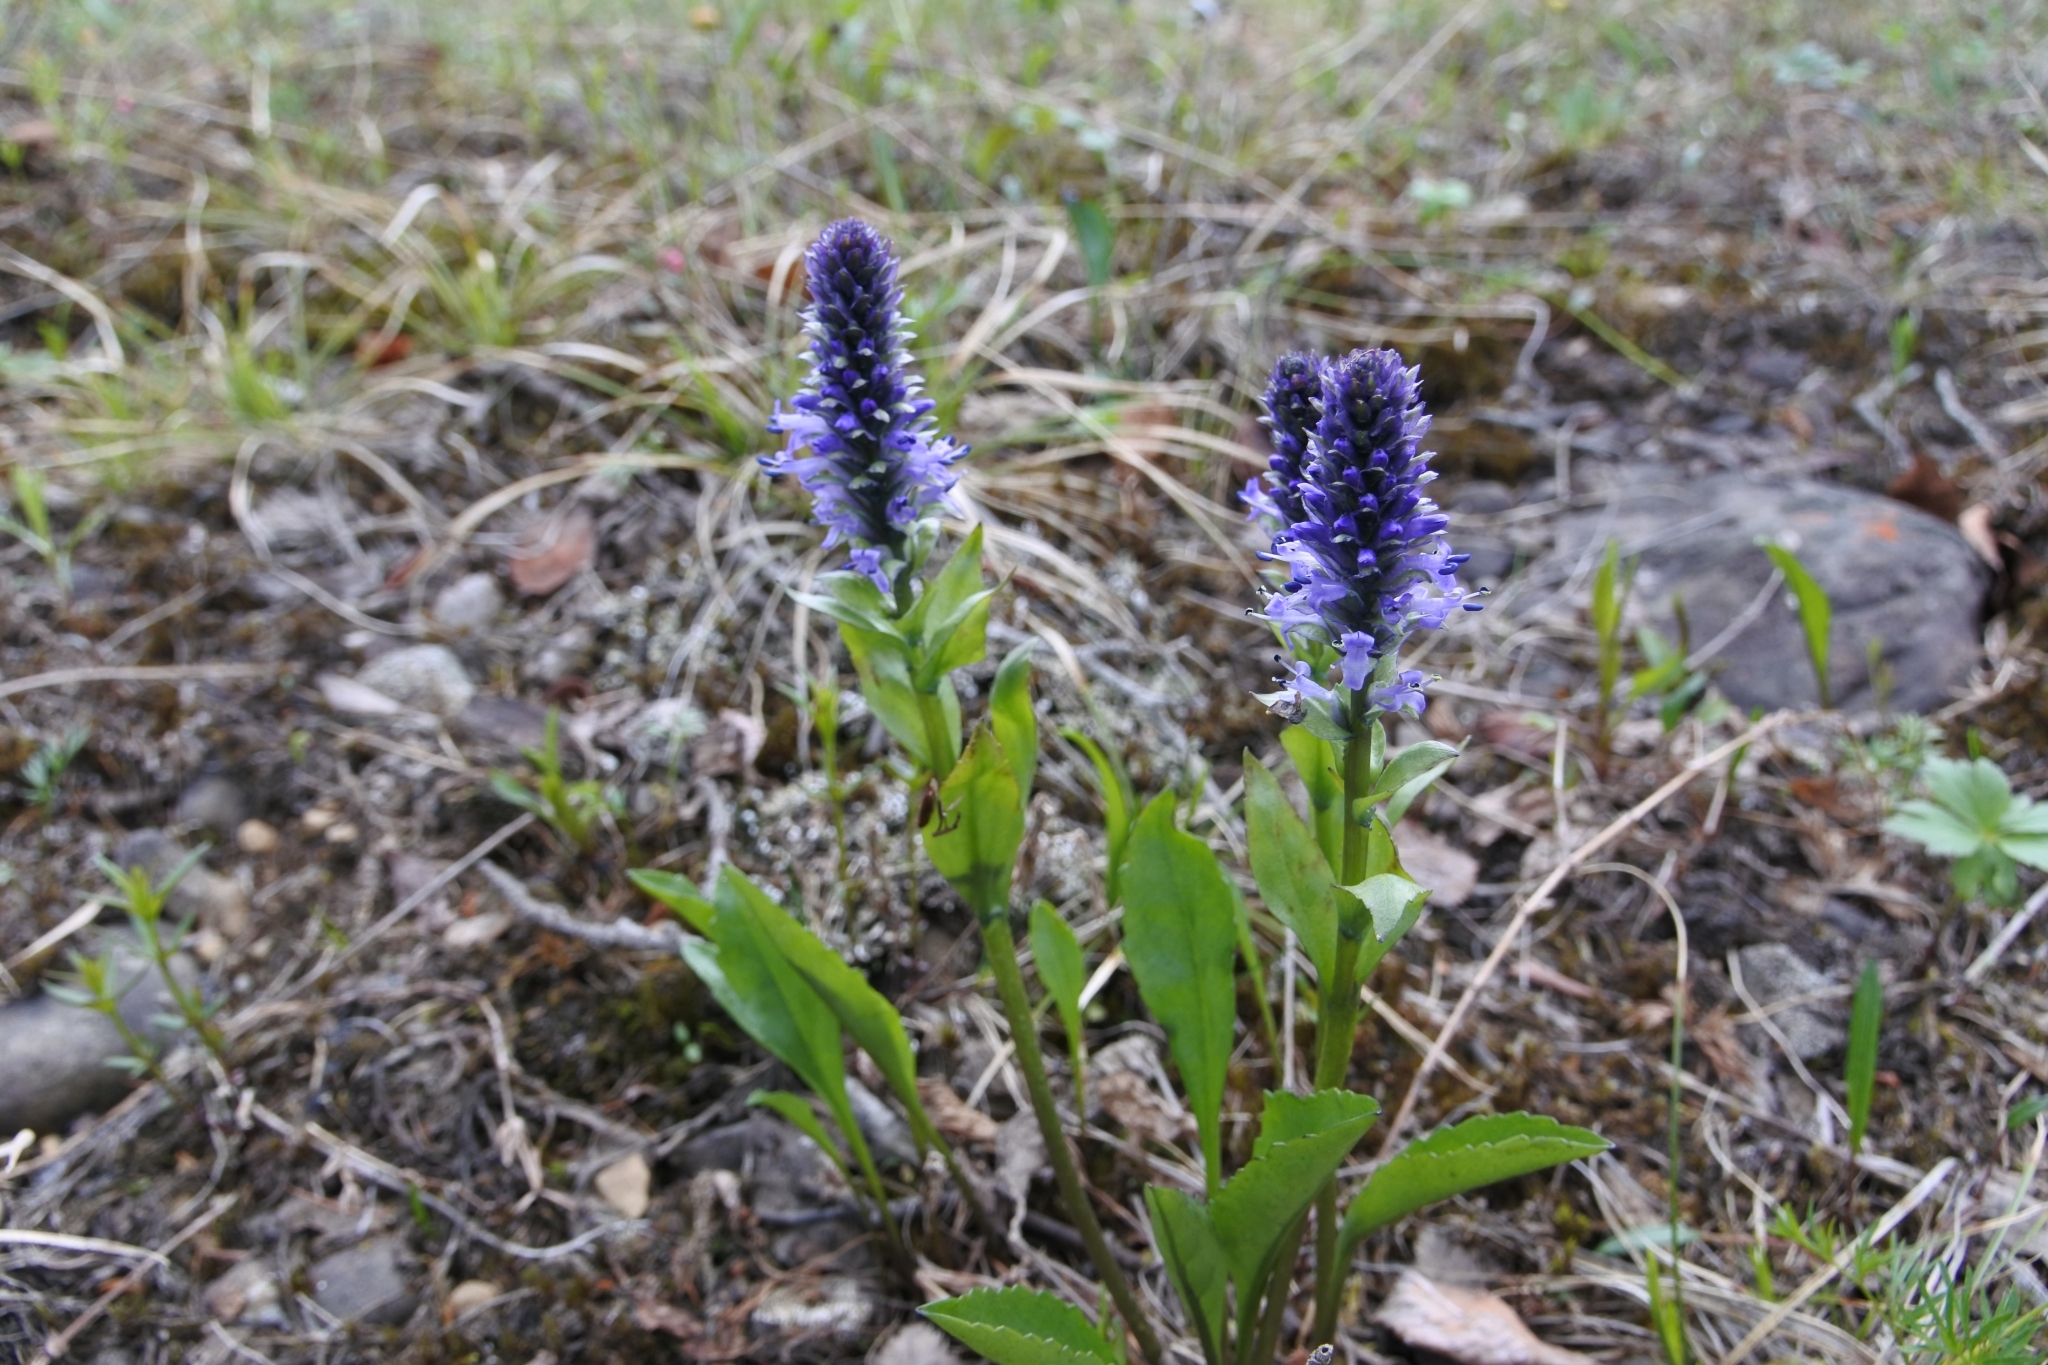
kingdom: Plantae
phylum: Tracheophyta
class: Magnoliopsida
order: Lamiales
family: Plantaginaceae
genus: Lagotis
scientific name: Lagotis glauca
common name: Glaucous weaselsnout
